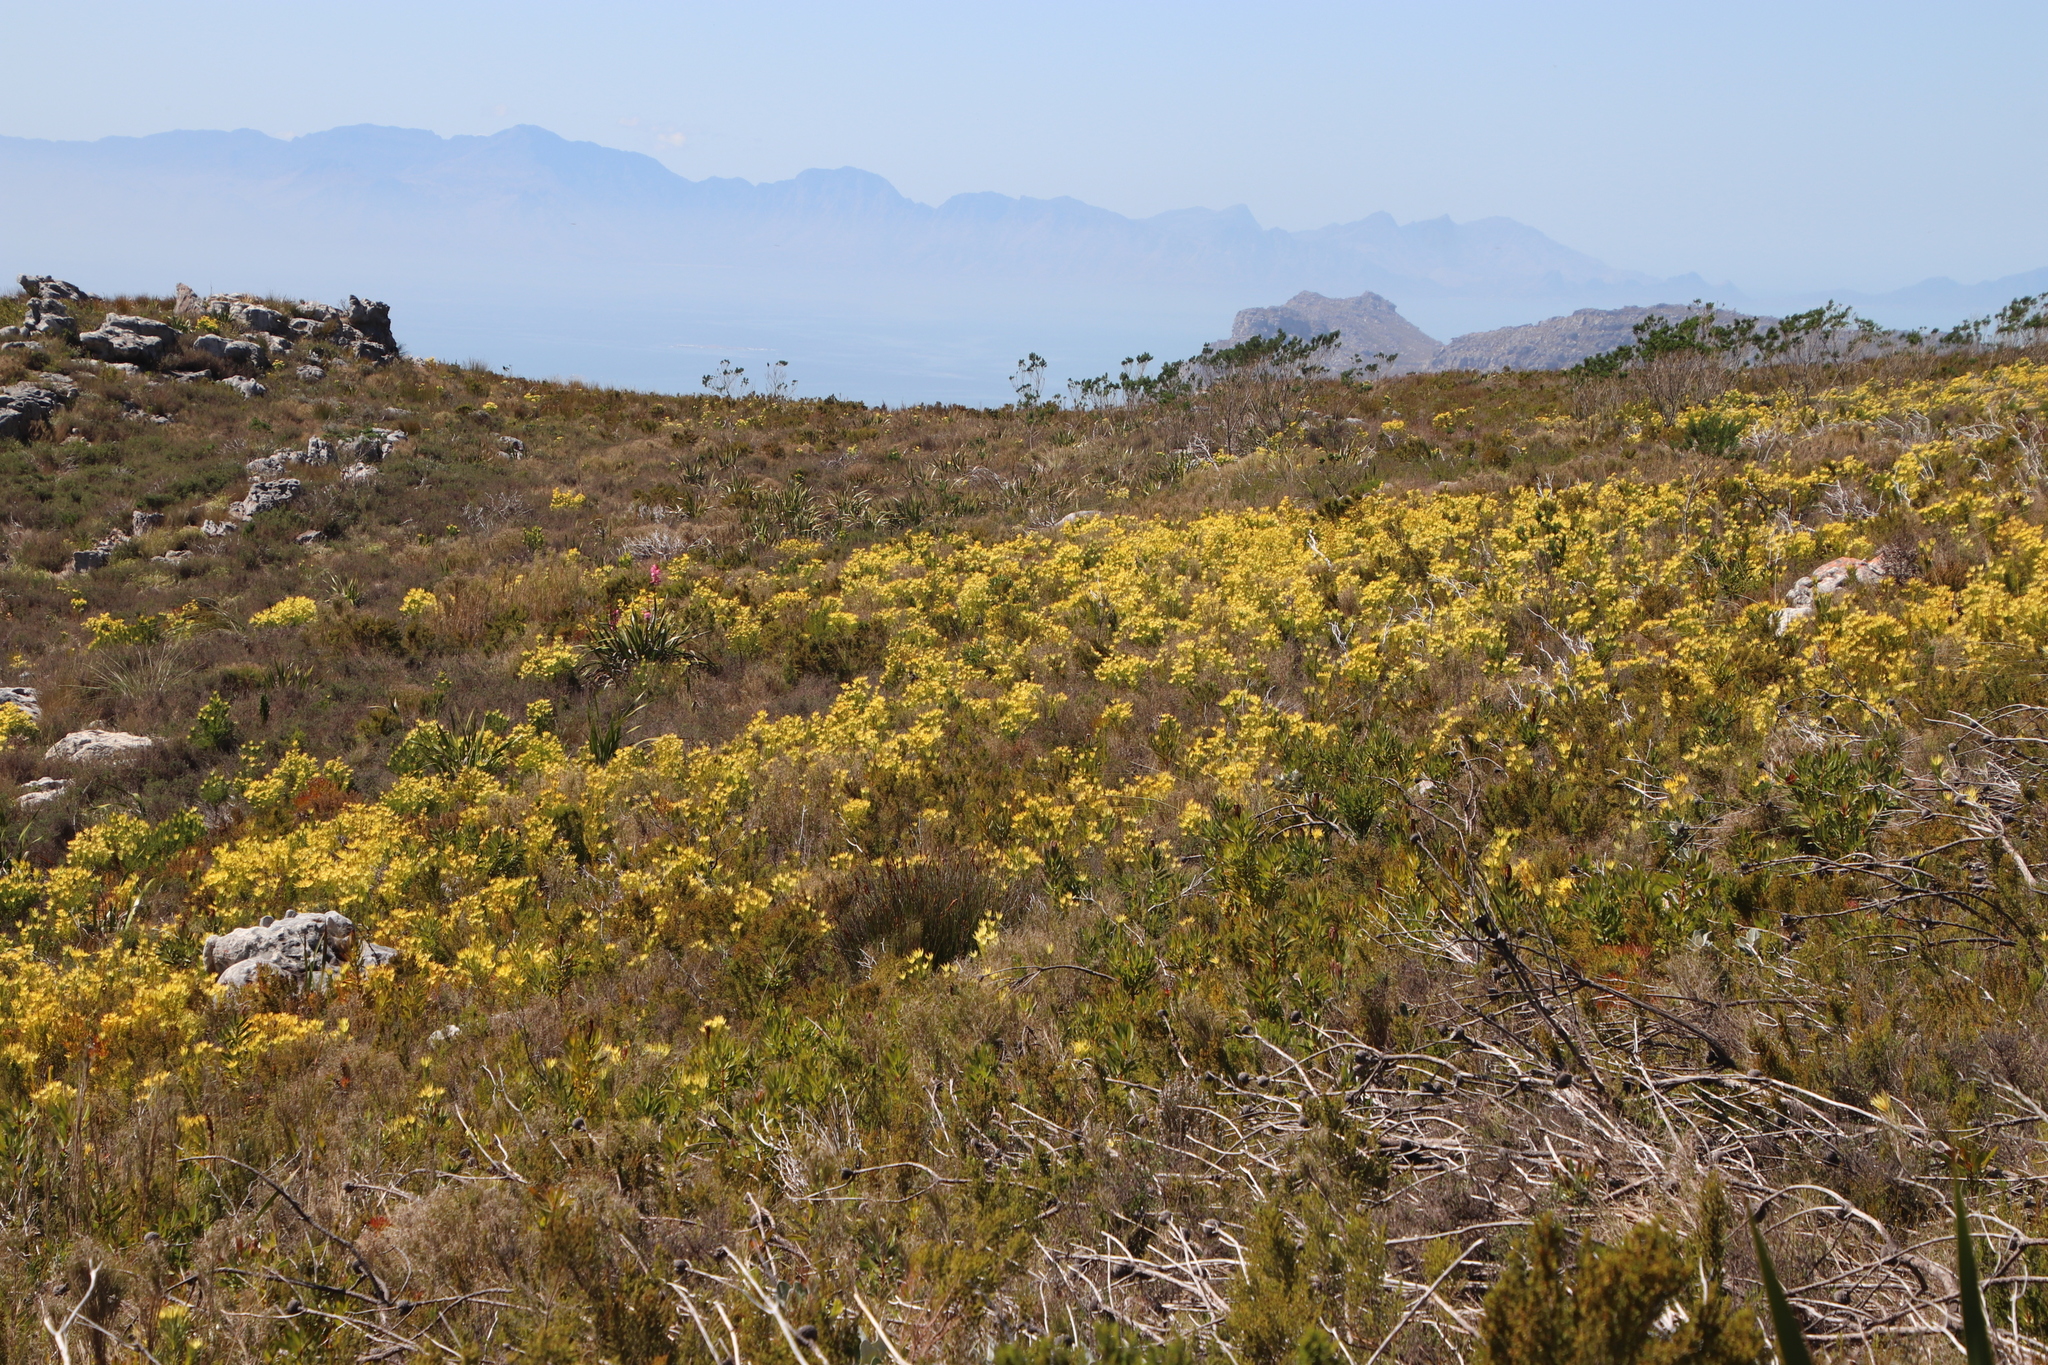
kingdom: Plantae
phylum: Tracheophyta
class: Magnoliopsida
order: Proteales
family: Proteaceae
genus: Leucadendron
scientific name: Leucadendron xanthoconus
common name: Sickle-leaf conebush
